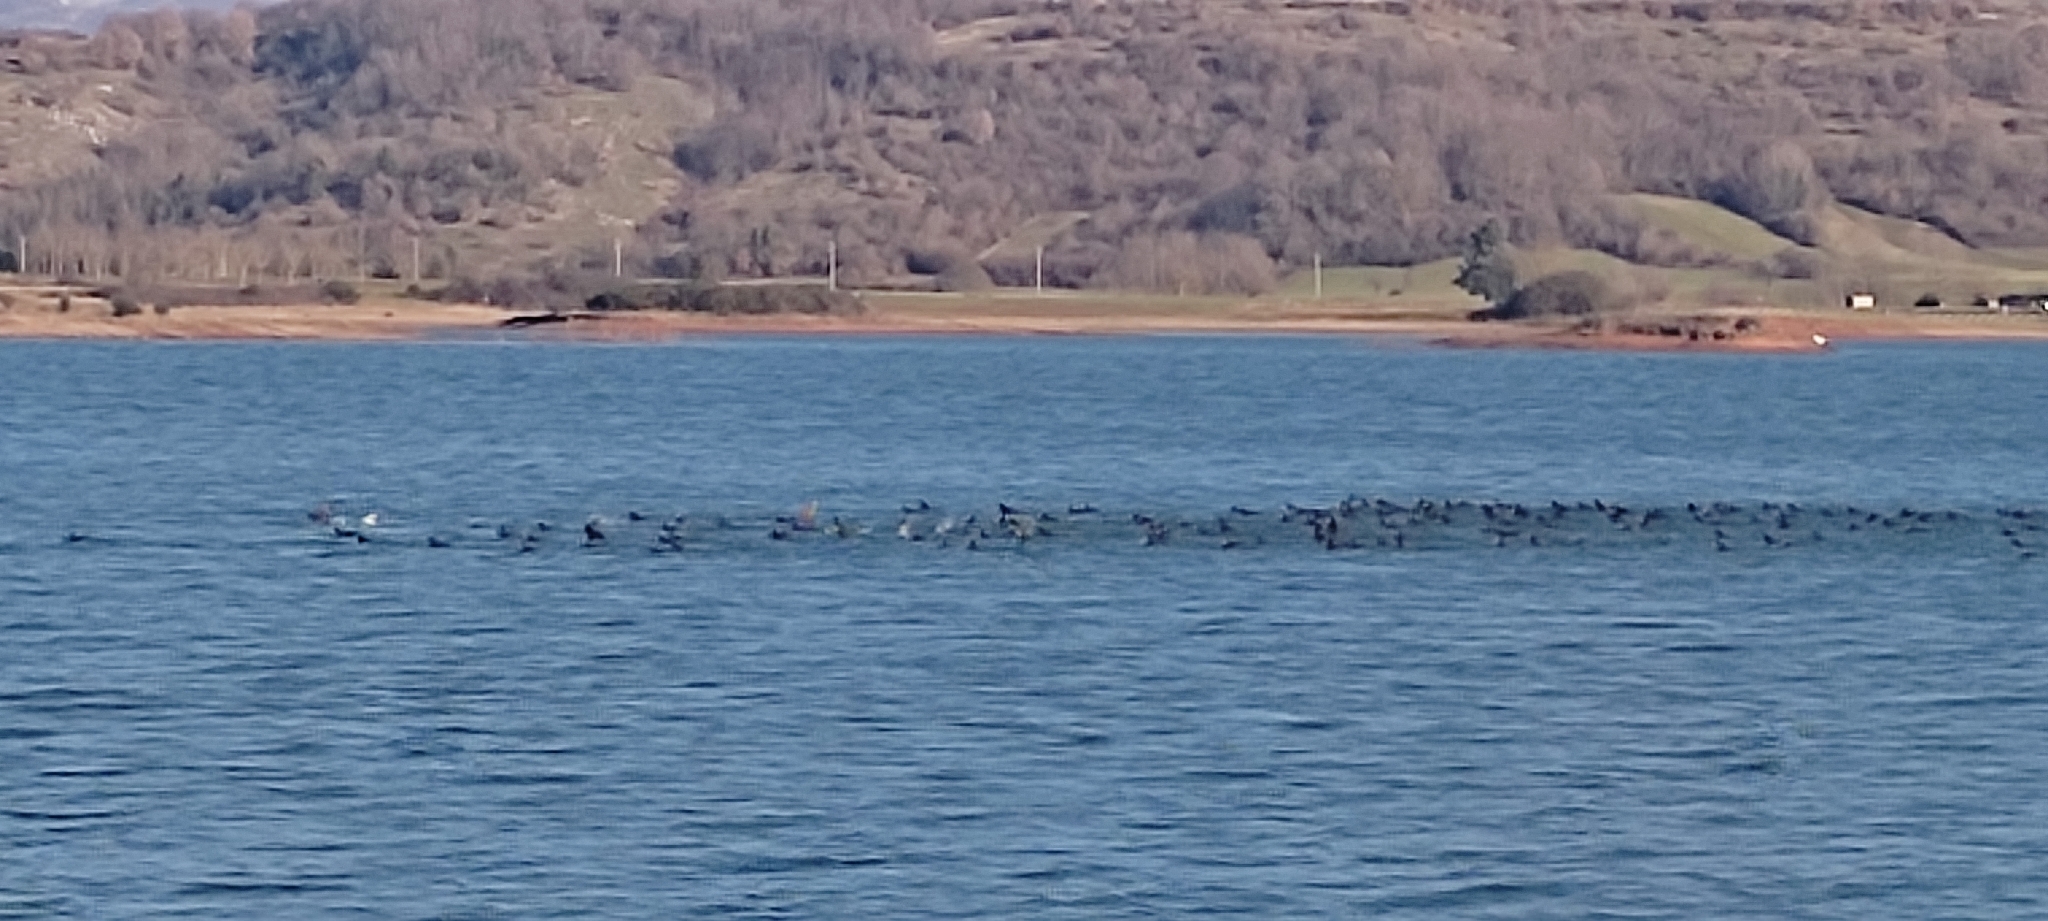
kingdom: Animalia
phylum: Chordata
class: Aves
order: Gruiformes
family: Rallidae
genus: Fulica
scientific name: Fulica atra
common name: Eurasian coot
